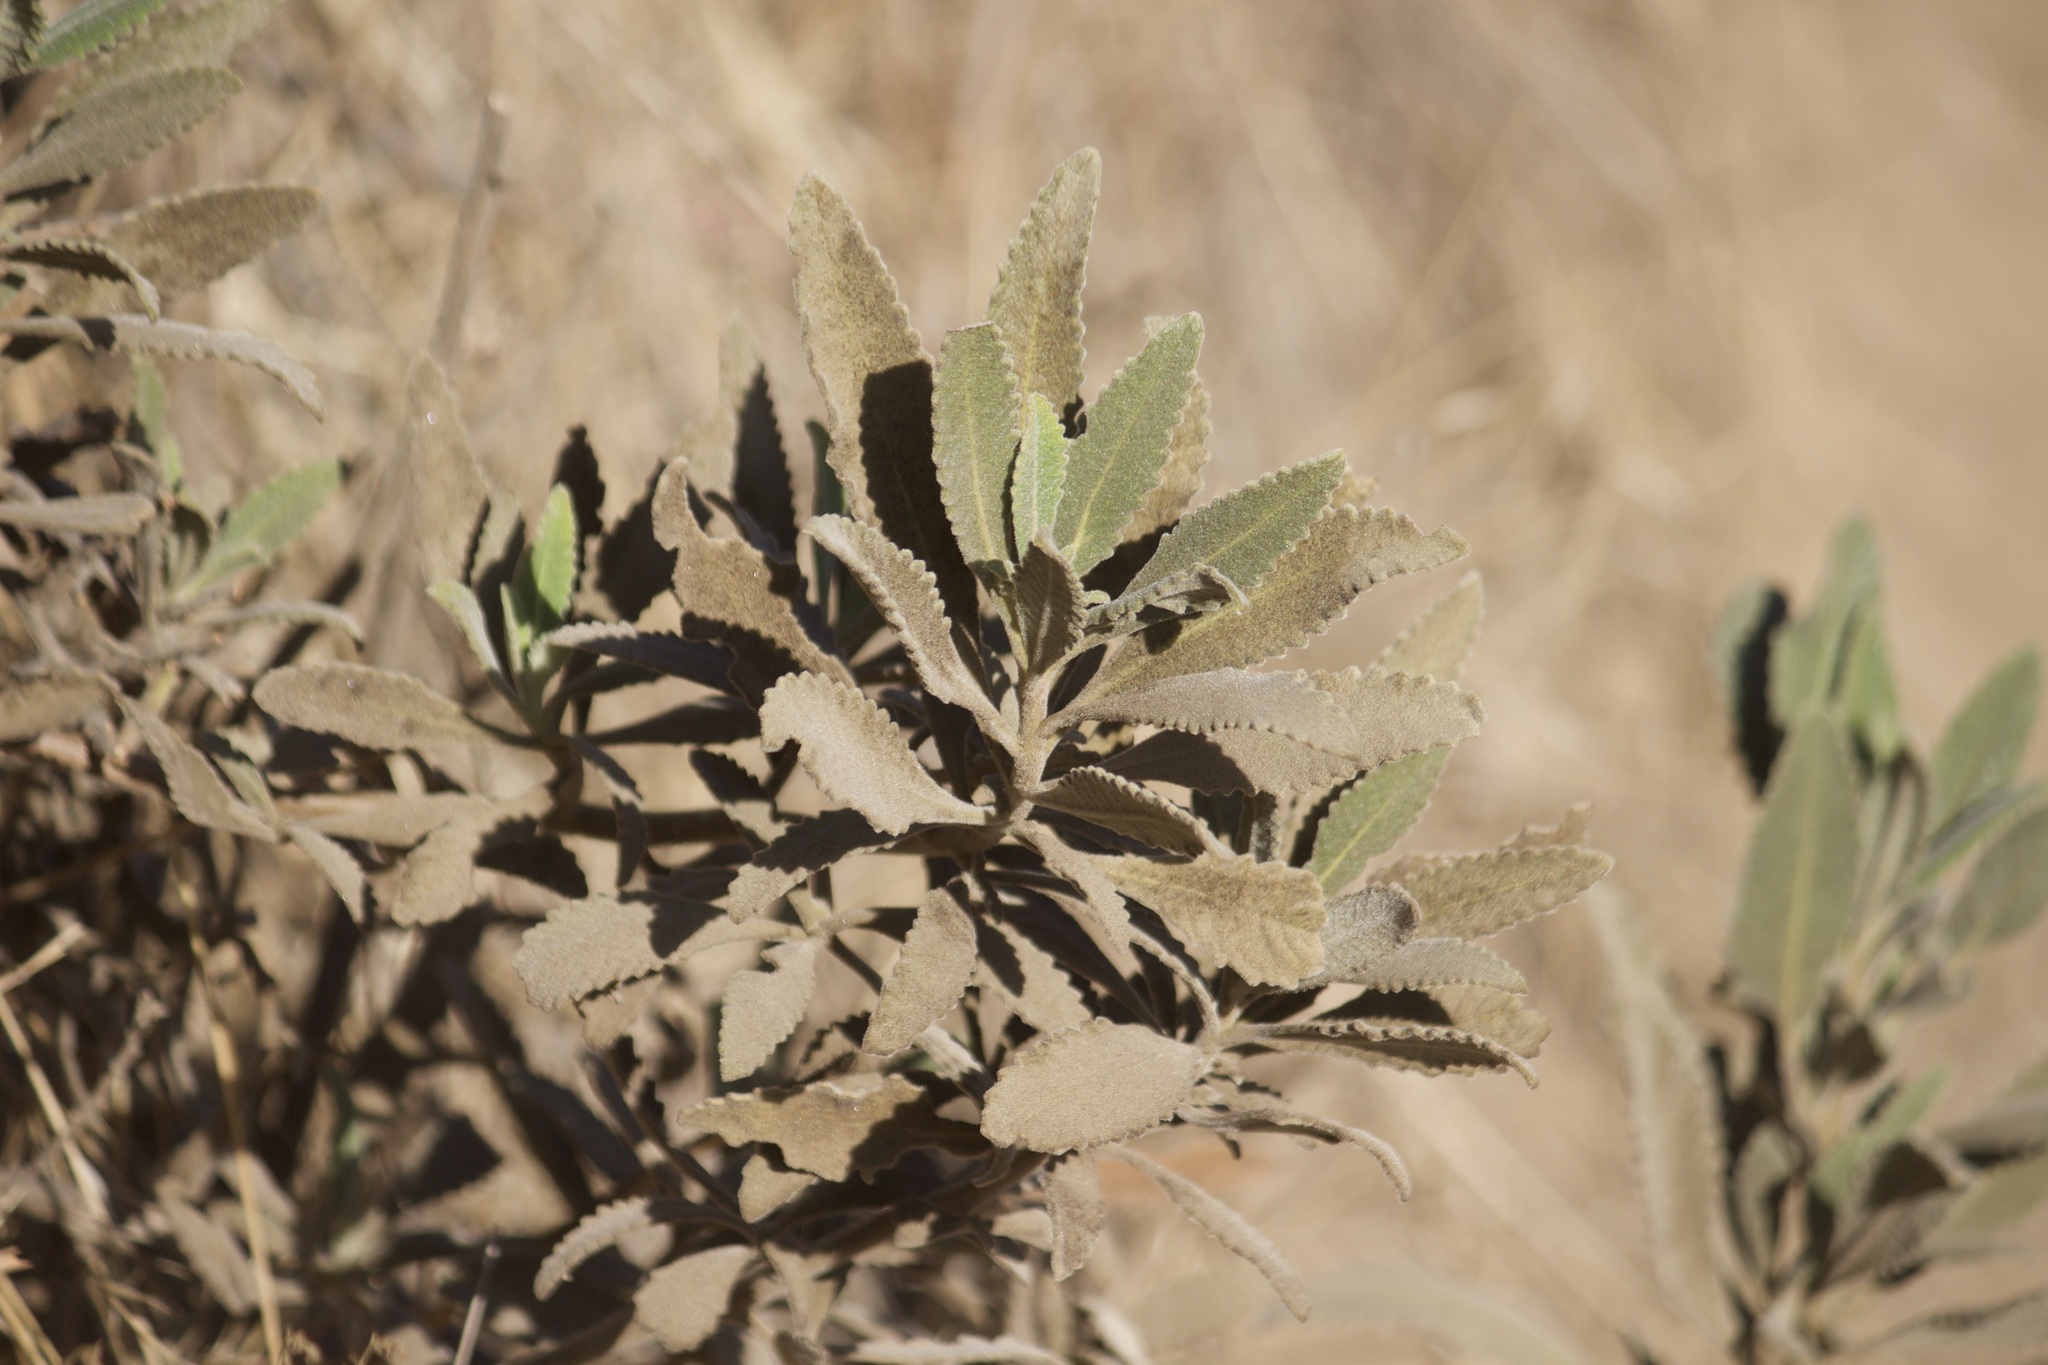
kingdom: Plantae
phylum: Tracheophyta
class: Magnoliopsida
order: Boraginales
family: Namaceae
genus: Eriodictyon
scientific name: Eriodictyon crassifolium
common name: Thick-leaf yerba-santa
